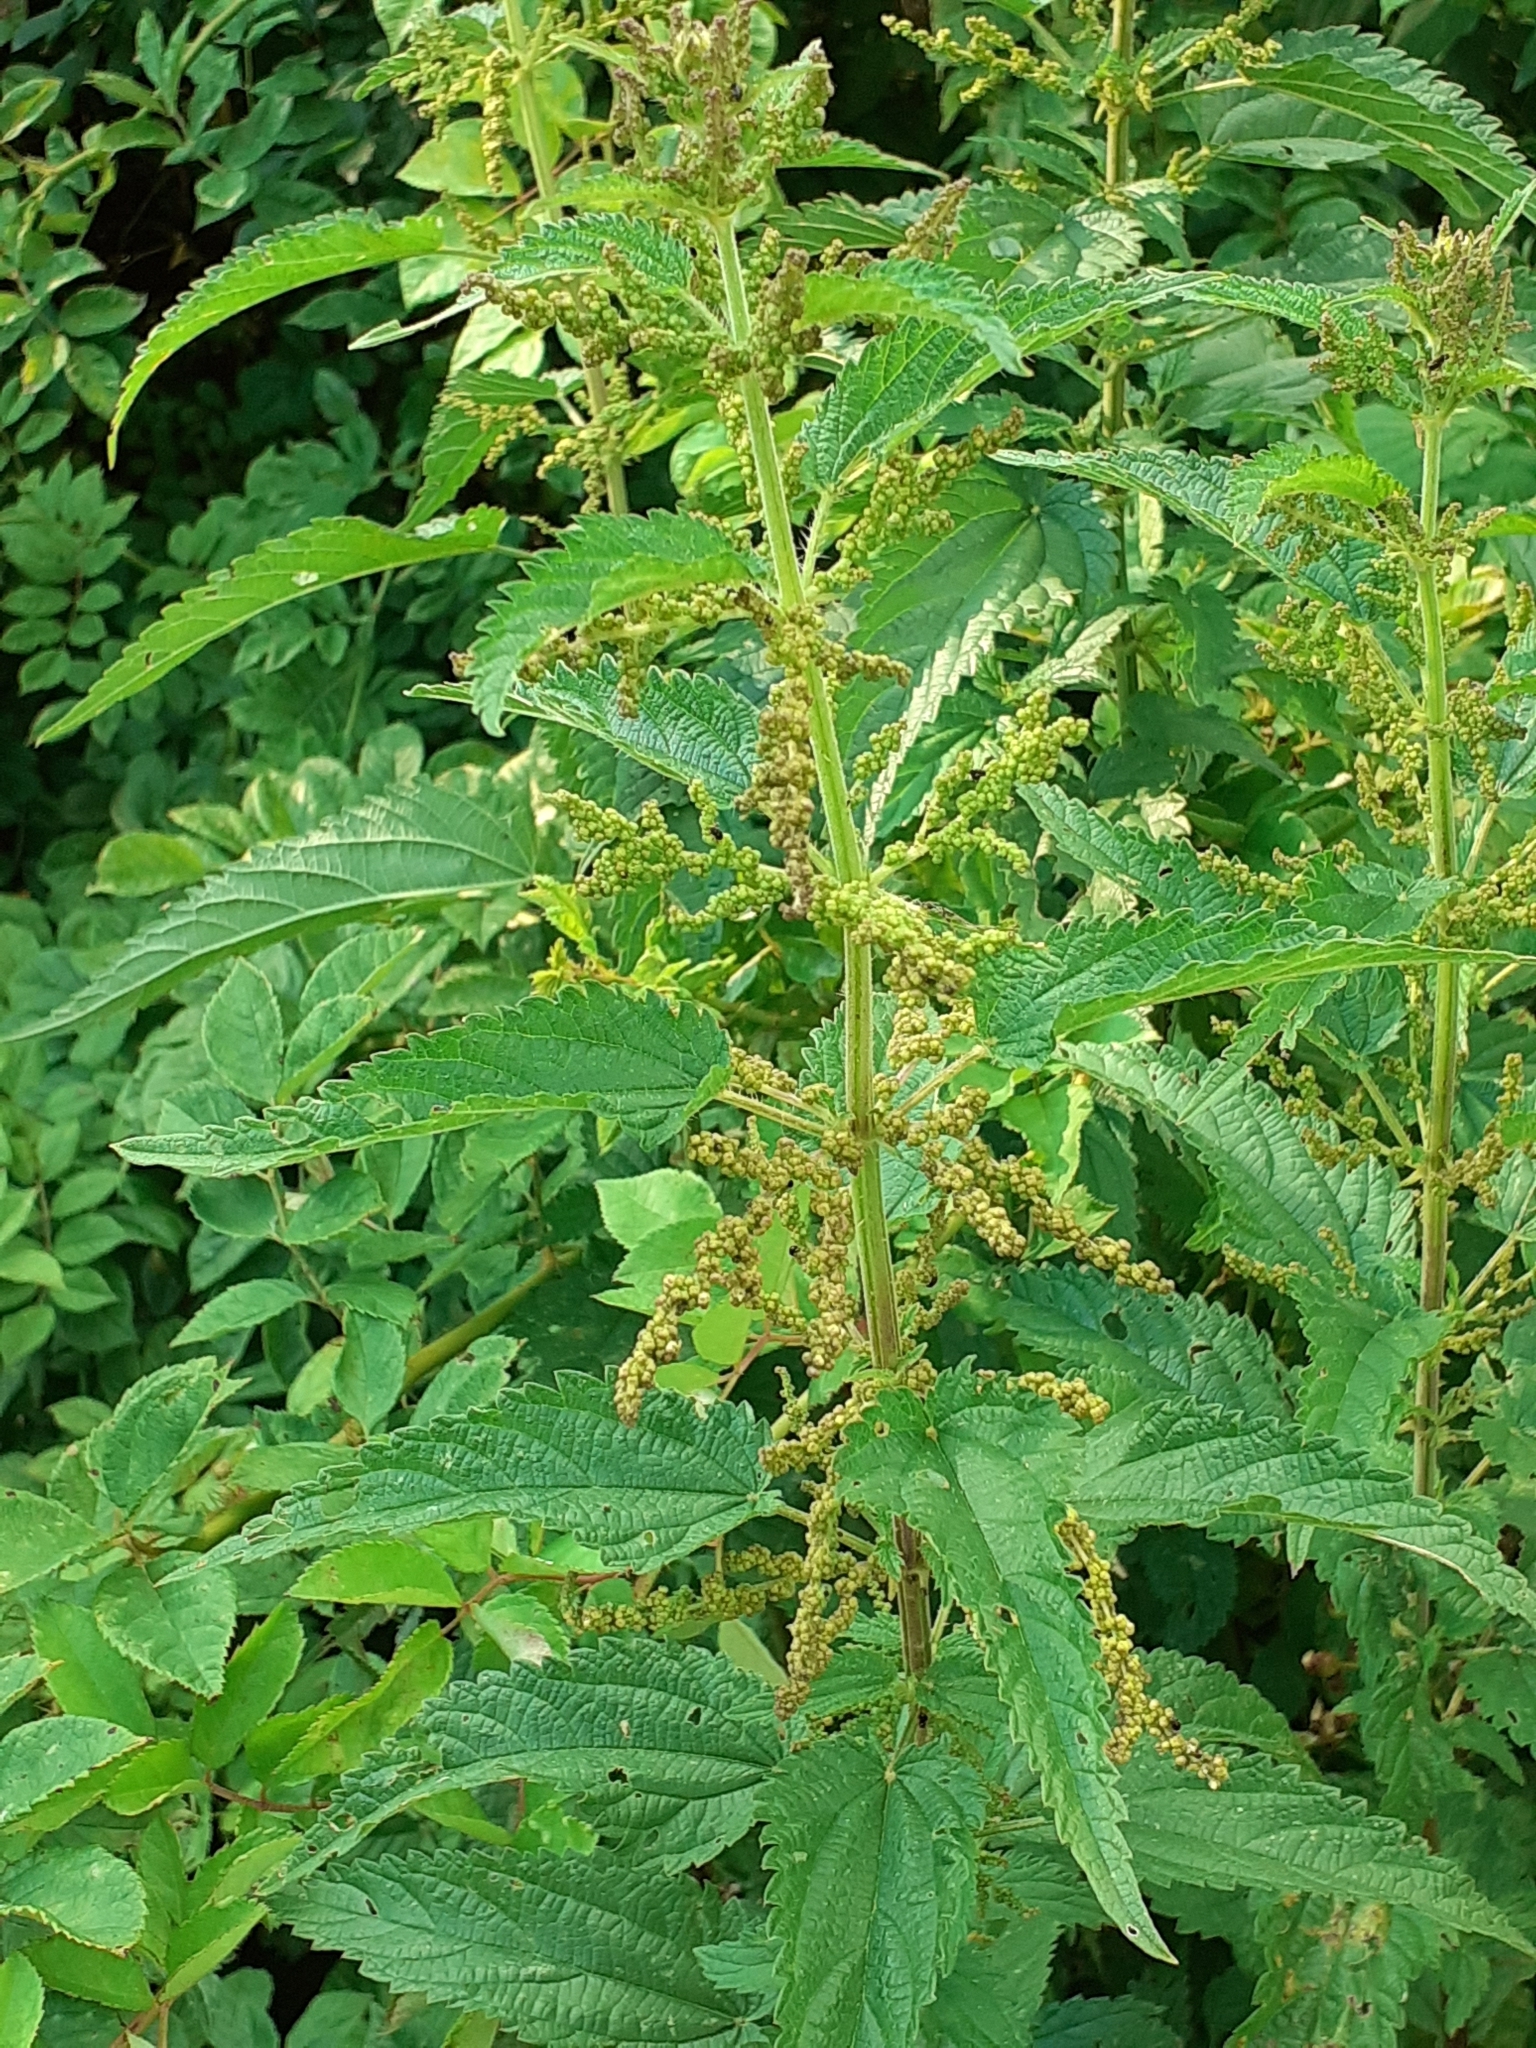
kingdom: Plantae
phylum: Tracheophyta
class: Magnoliopsida
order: Rosales
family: Urticaceae
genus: Urtica
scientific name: Urtica dioica
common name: Common nettle
